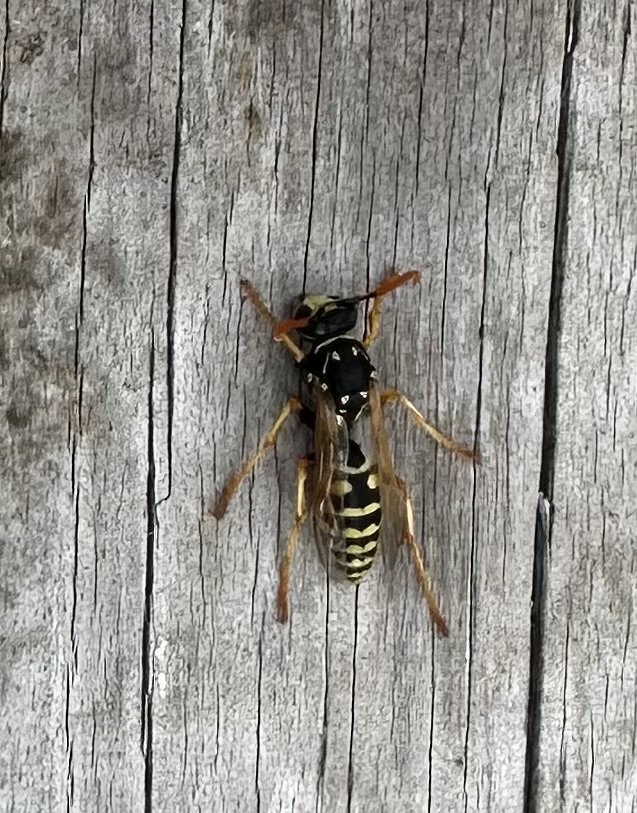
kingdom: Animalia
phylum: Arthropoda
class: Insecta
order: Hymenoptera
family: Eumenidae
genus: Polistes
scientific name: Polistes dominula
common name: Paper wasp
